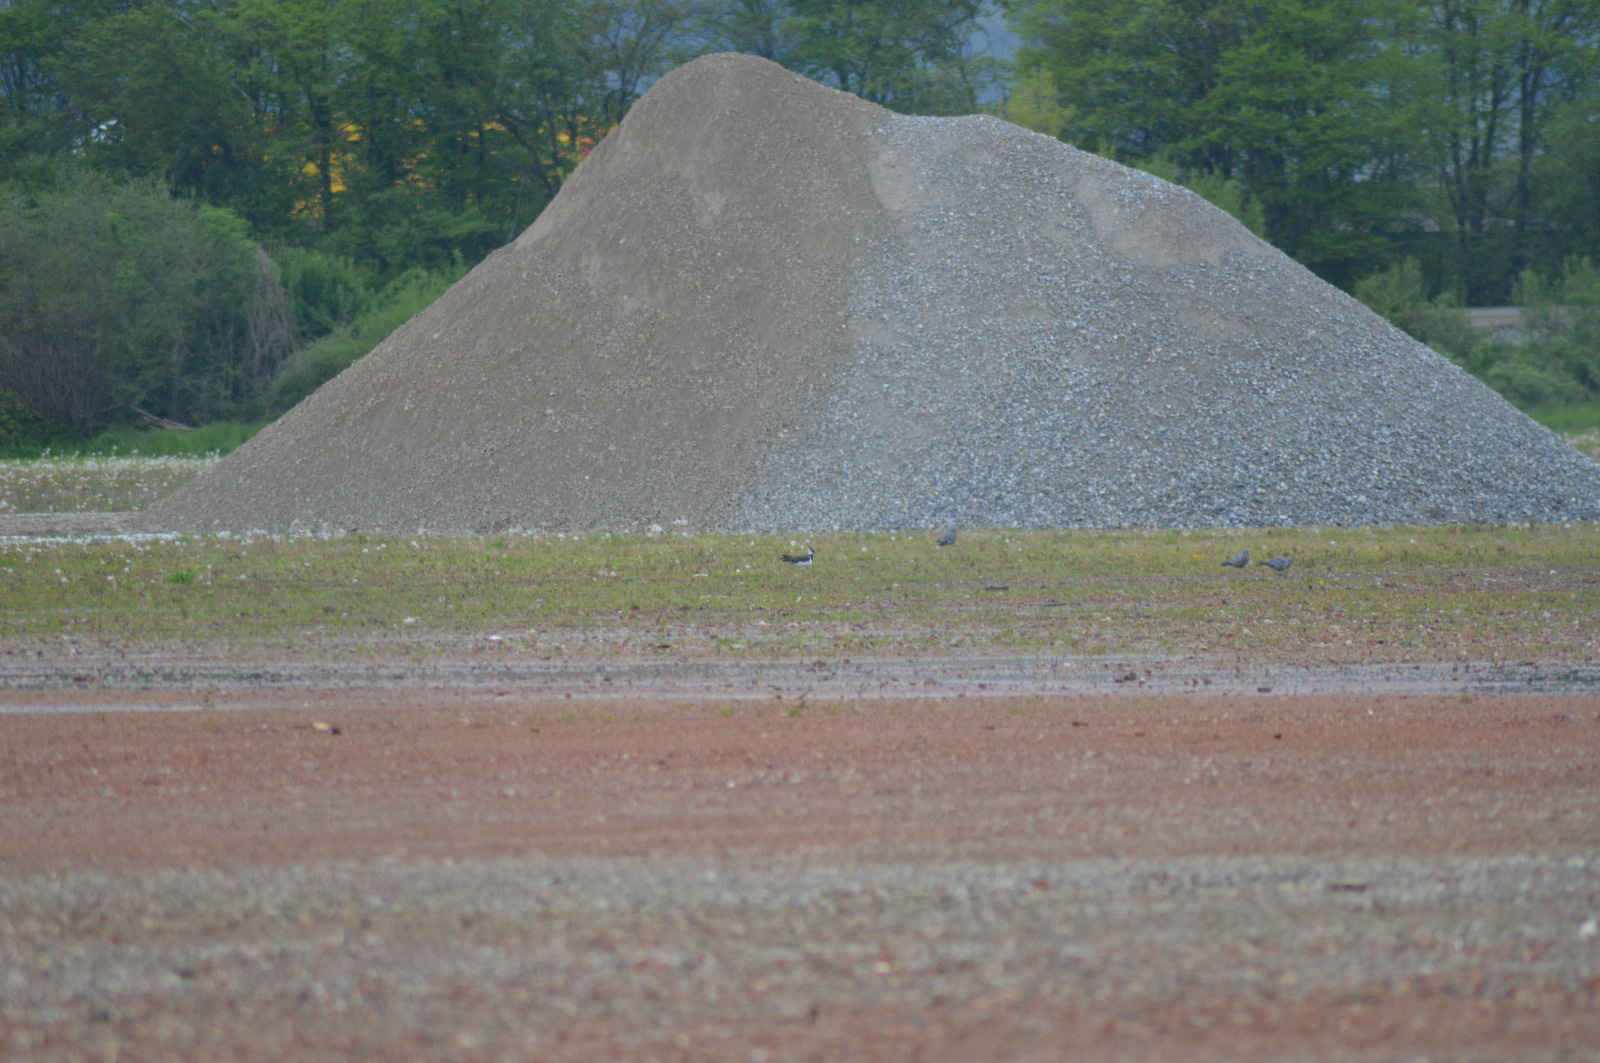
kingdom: Animalia
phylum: Chordata
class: Aves
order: Columbiformes
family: Columbidae
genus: Columba
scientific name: Columba oenas
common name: Stock dove
